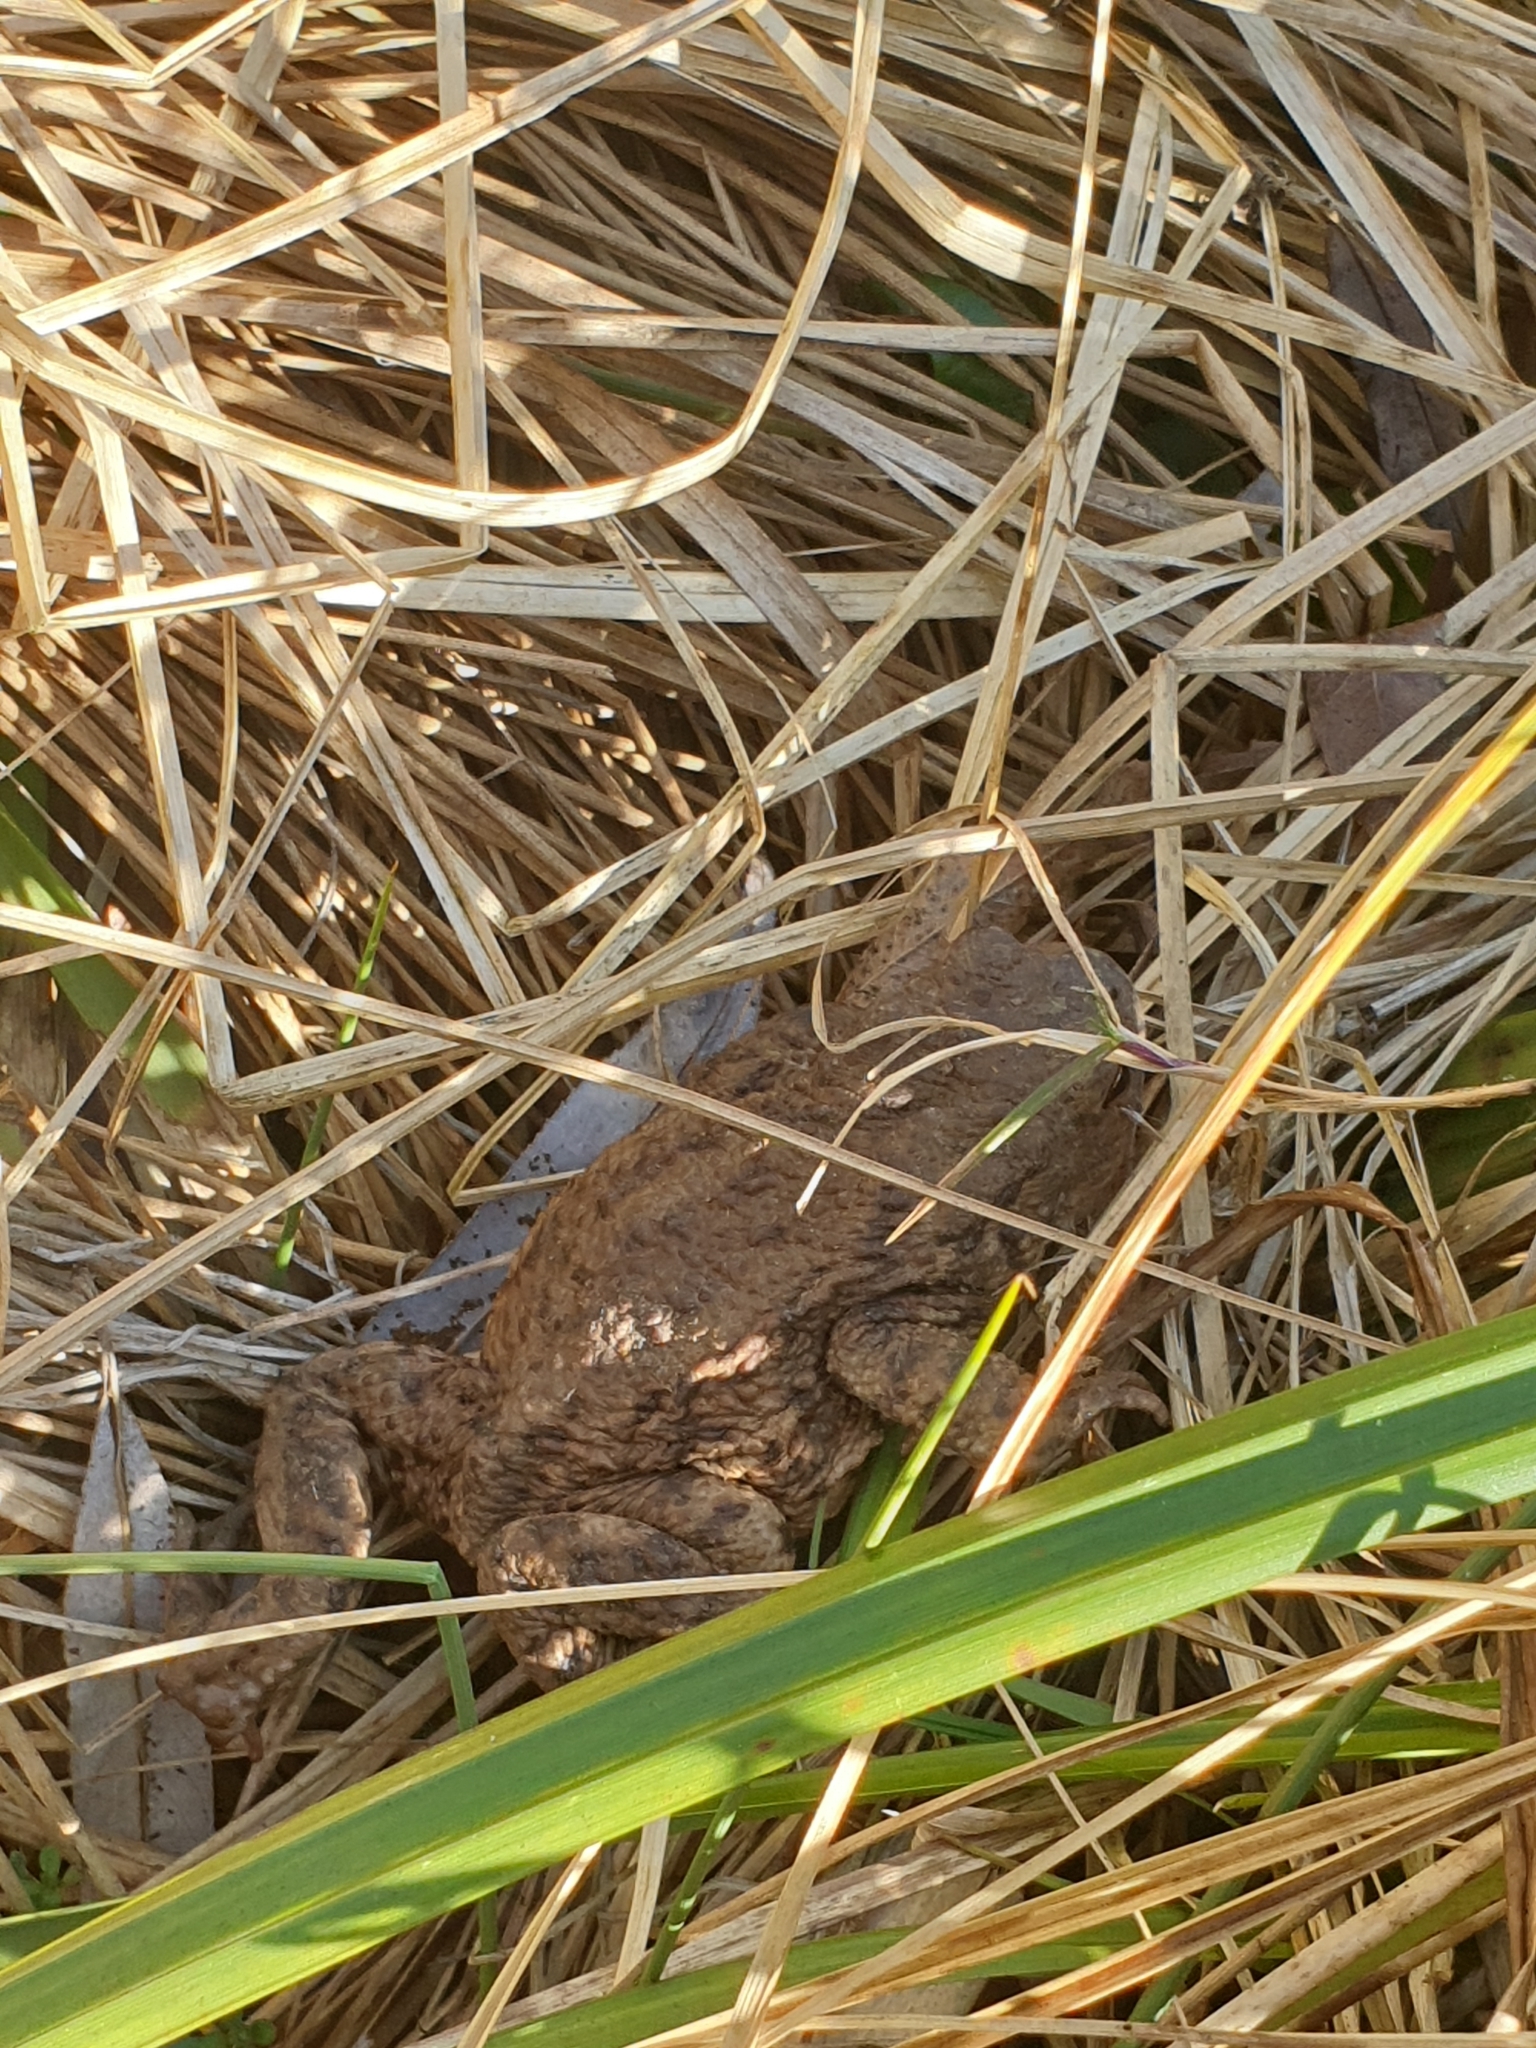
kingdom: Animalia
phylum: Chordata
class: Amphibia
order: Anura
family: Bufonidae
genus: Bufo
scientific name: Bufo bufo
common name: Common toad
